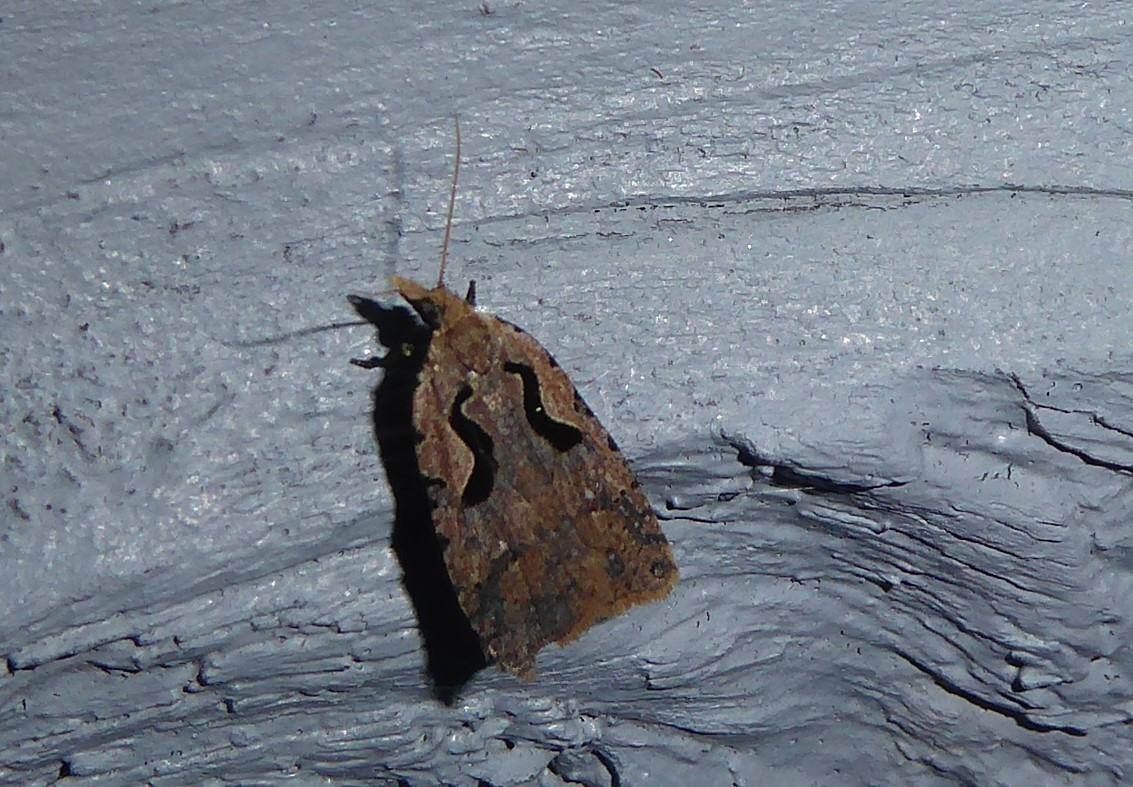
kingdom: Animalia
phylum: Arthropoda
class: Insecta
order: Lepidoptera
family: Tortricidae
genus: Cnephasia
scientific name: Cnephasia jactatana
